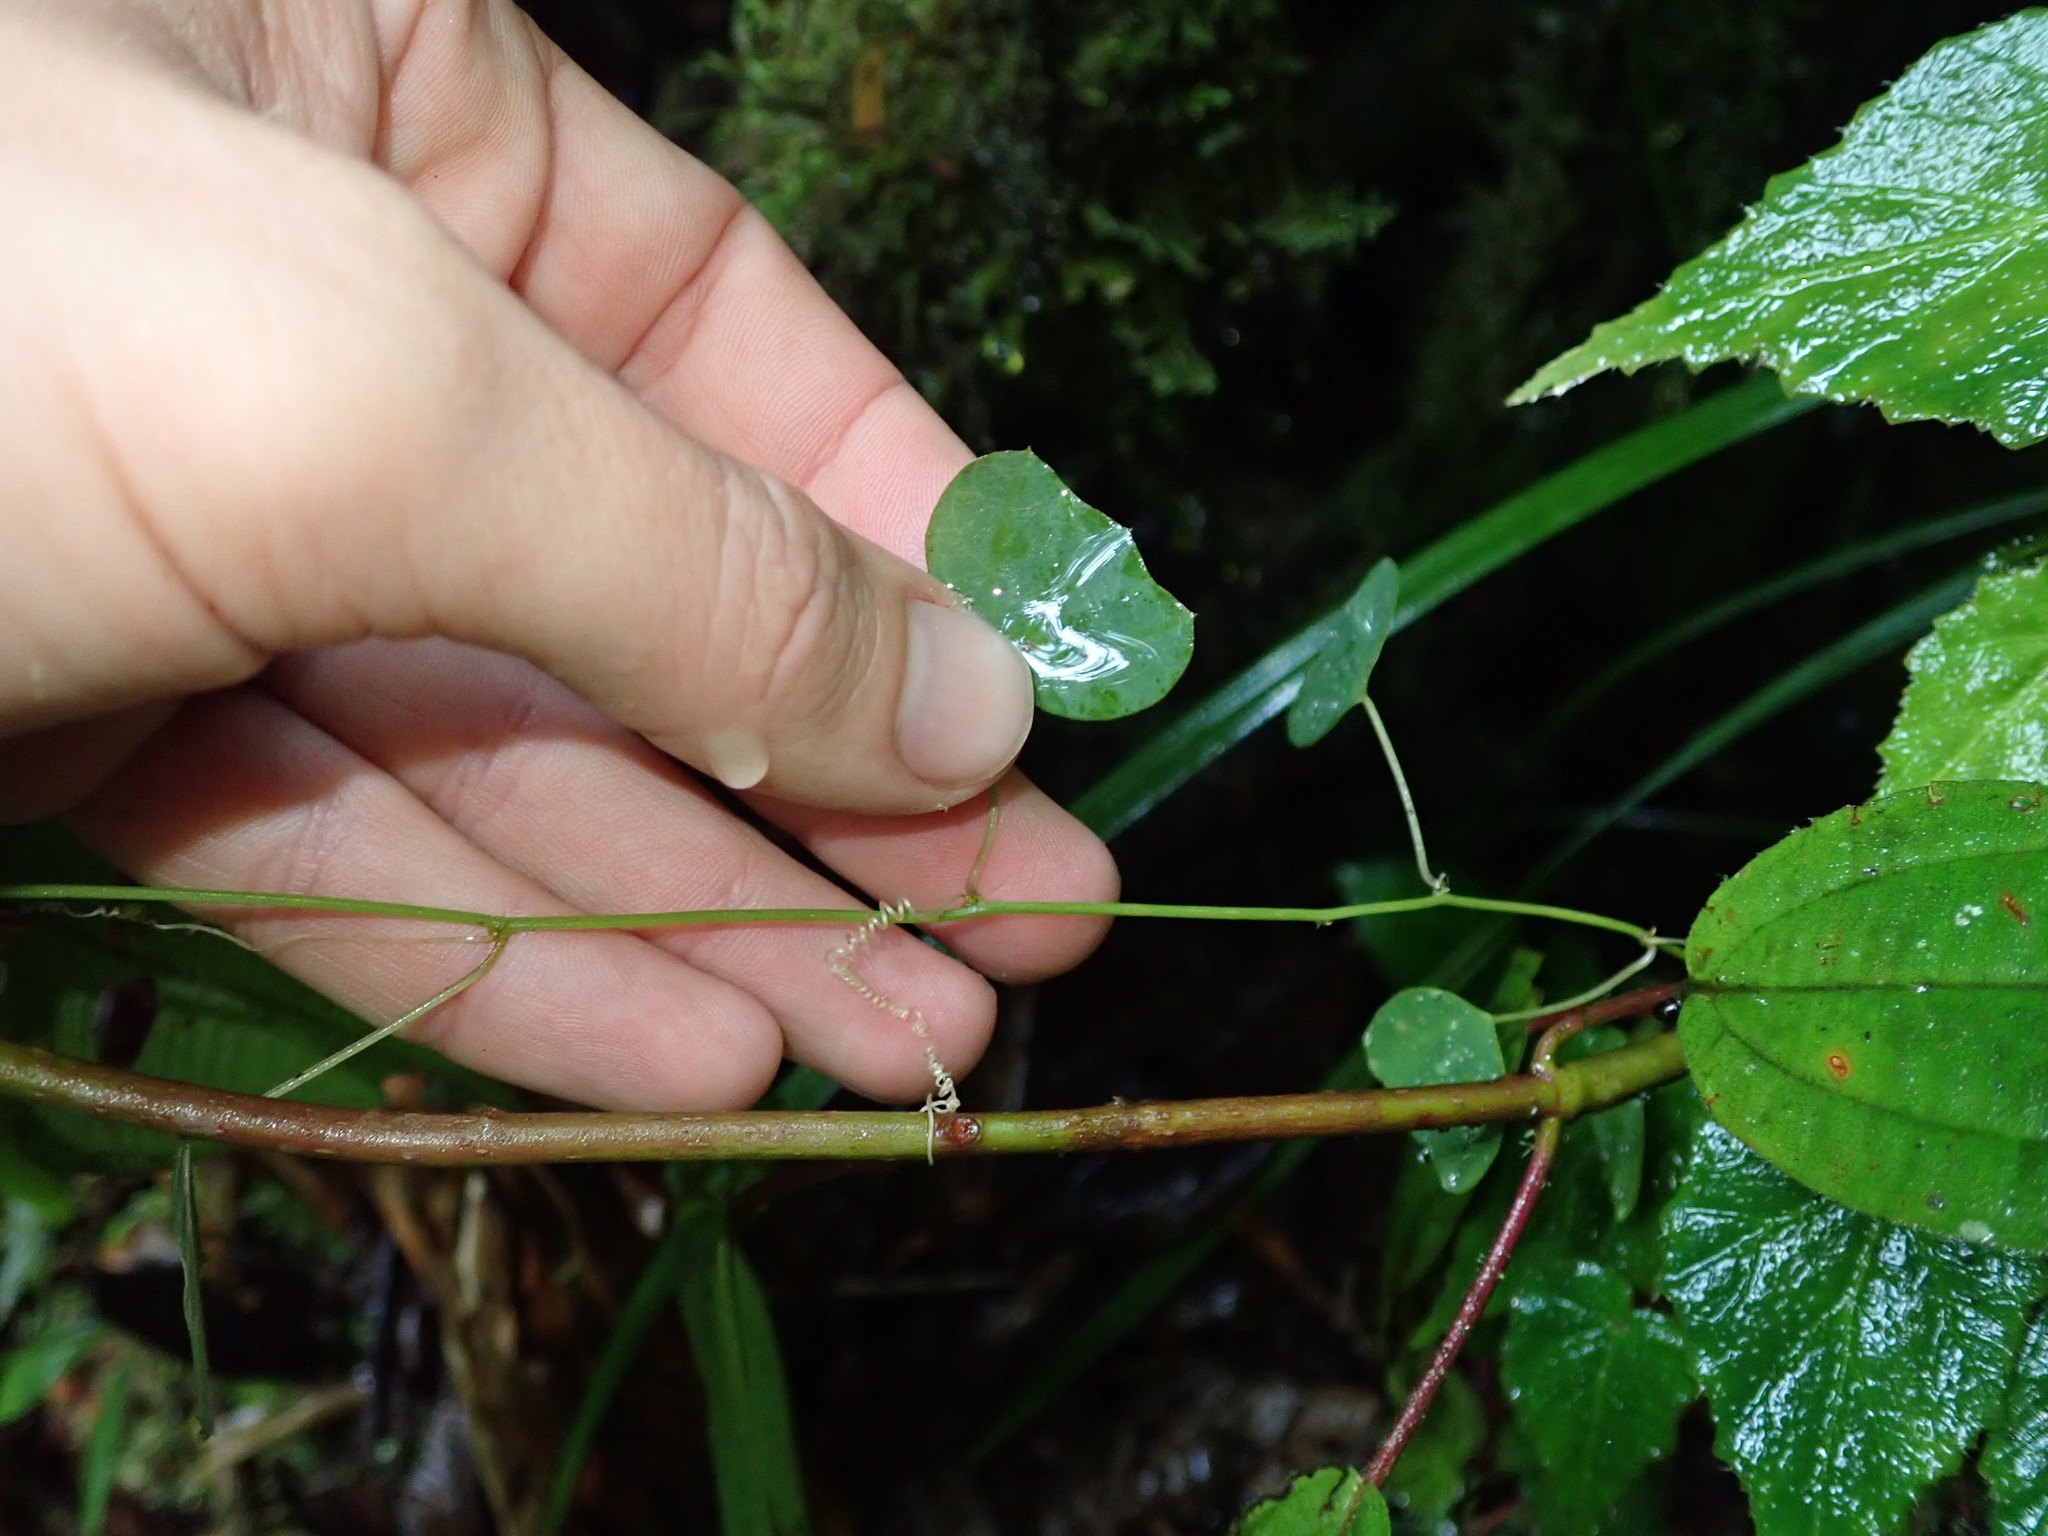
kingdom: Plantae
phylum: Tracheophyta
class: Magnoliopsida
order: Malpighiales
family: Passifloraceae
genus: Passiflora
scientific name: Passiflora
